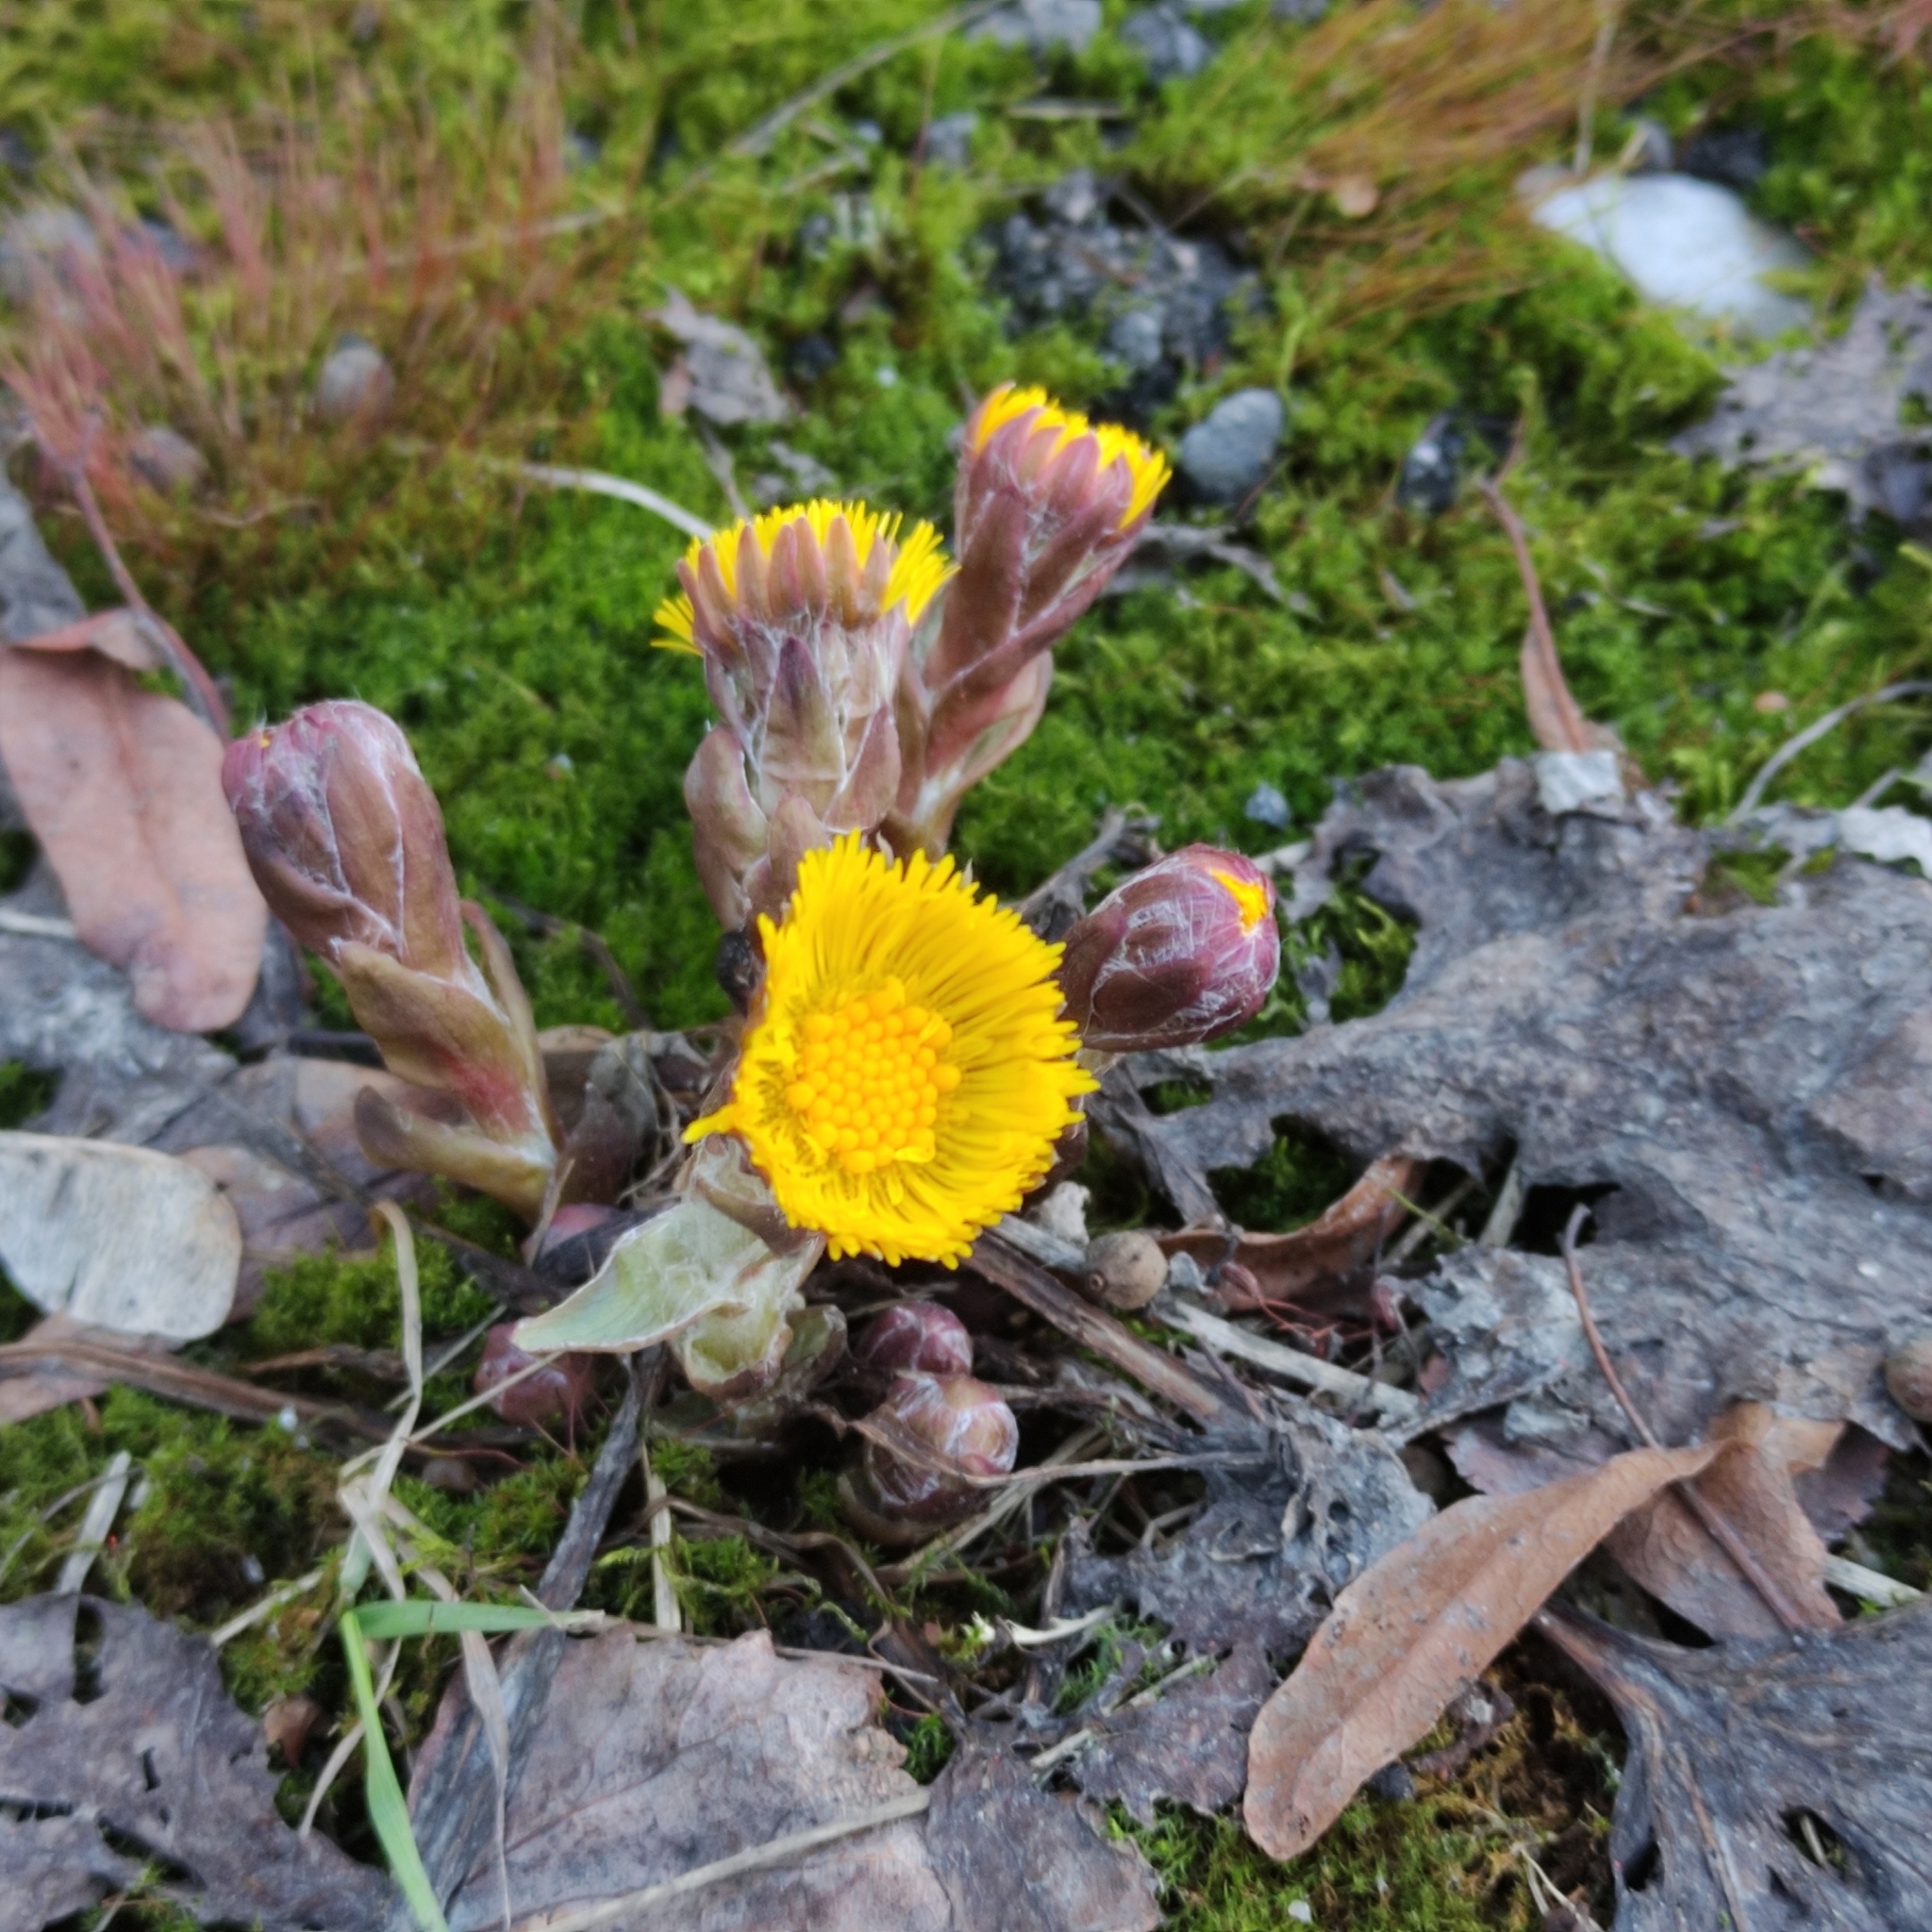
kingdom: Plantae
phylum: Tracheophyta
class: Magnoliopsida
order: Asterales
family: Asteraceae
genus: Tussilago
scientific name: Tussilago farfara
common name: Coltsfoot
